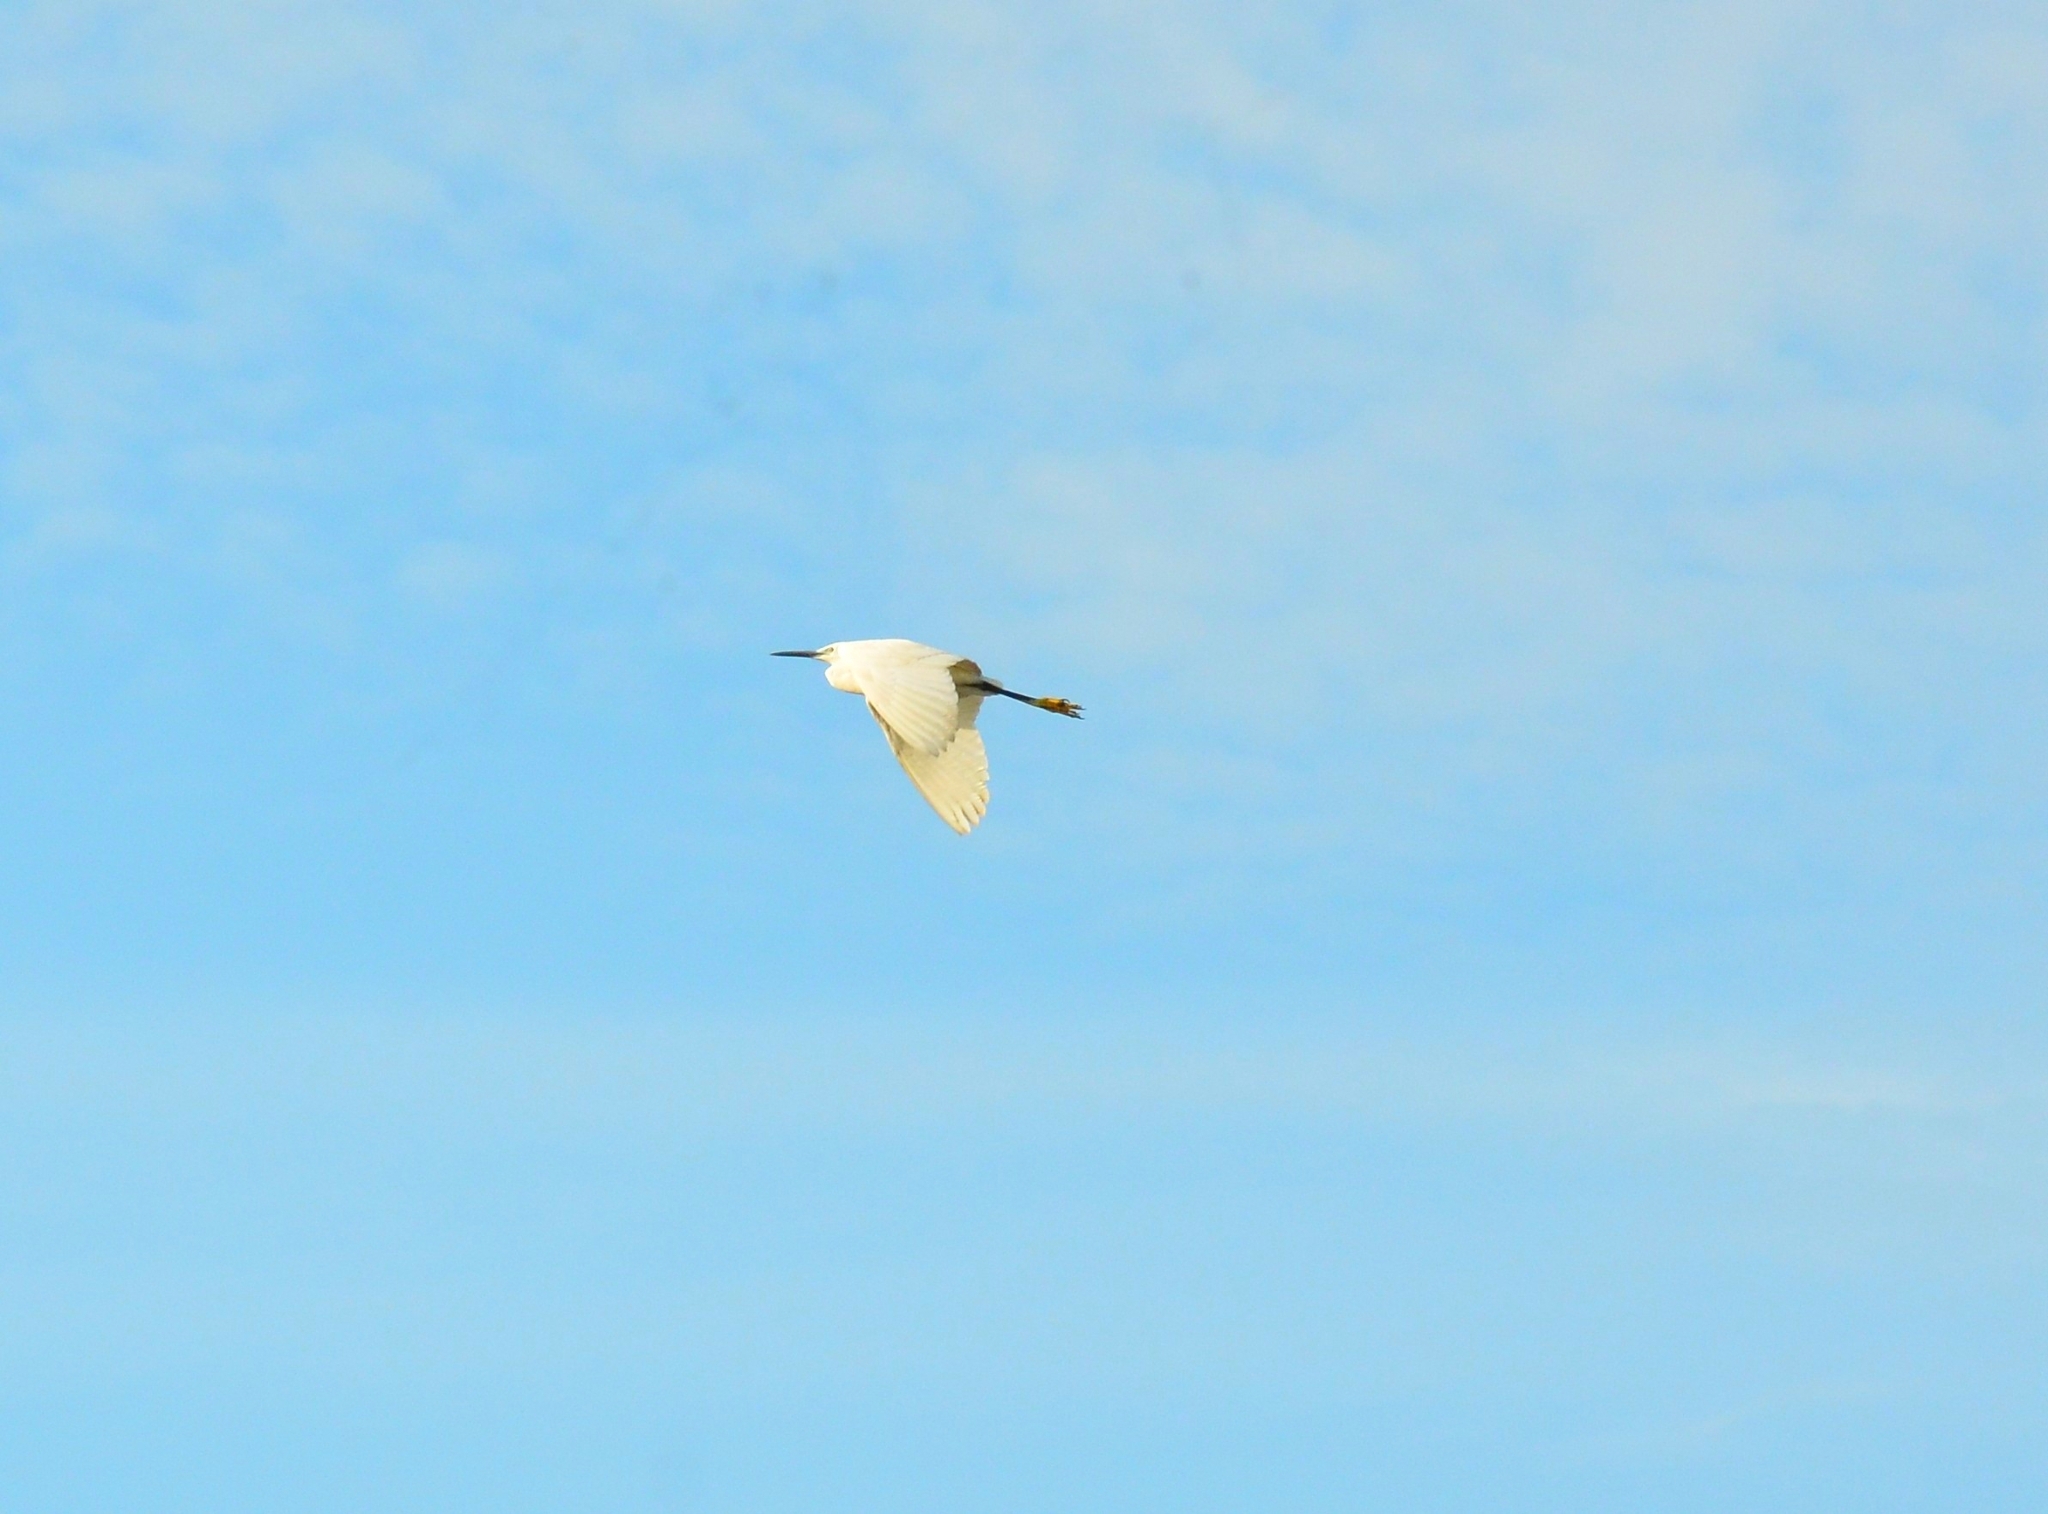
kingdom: Animalia
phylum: Chordata
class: Aves
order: Pelecaniformes
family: Ardeidae
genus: Egretta
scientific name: Egretta garzetta
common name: Little egret
